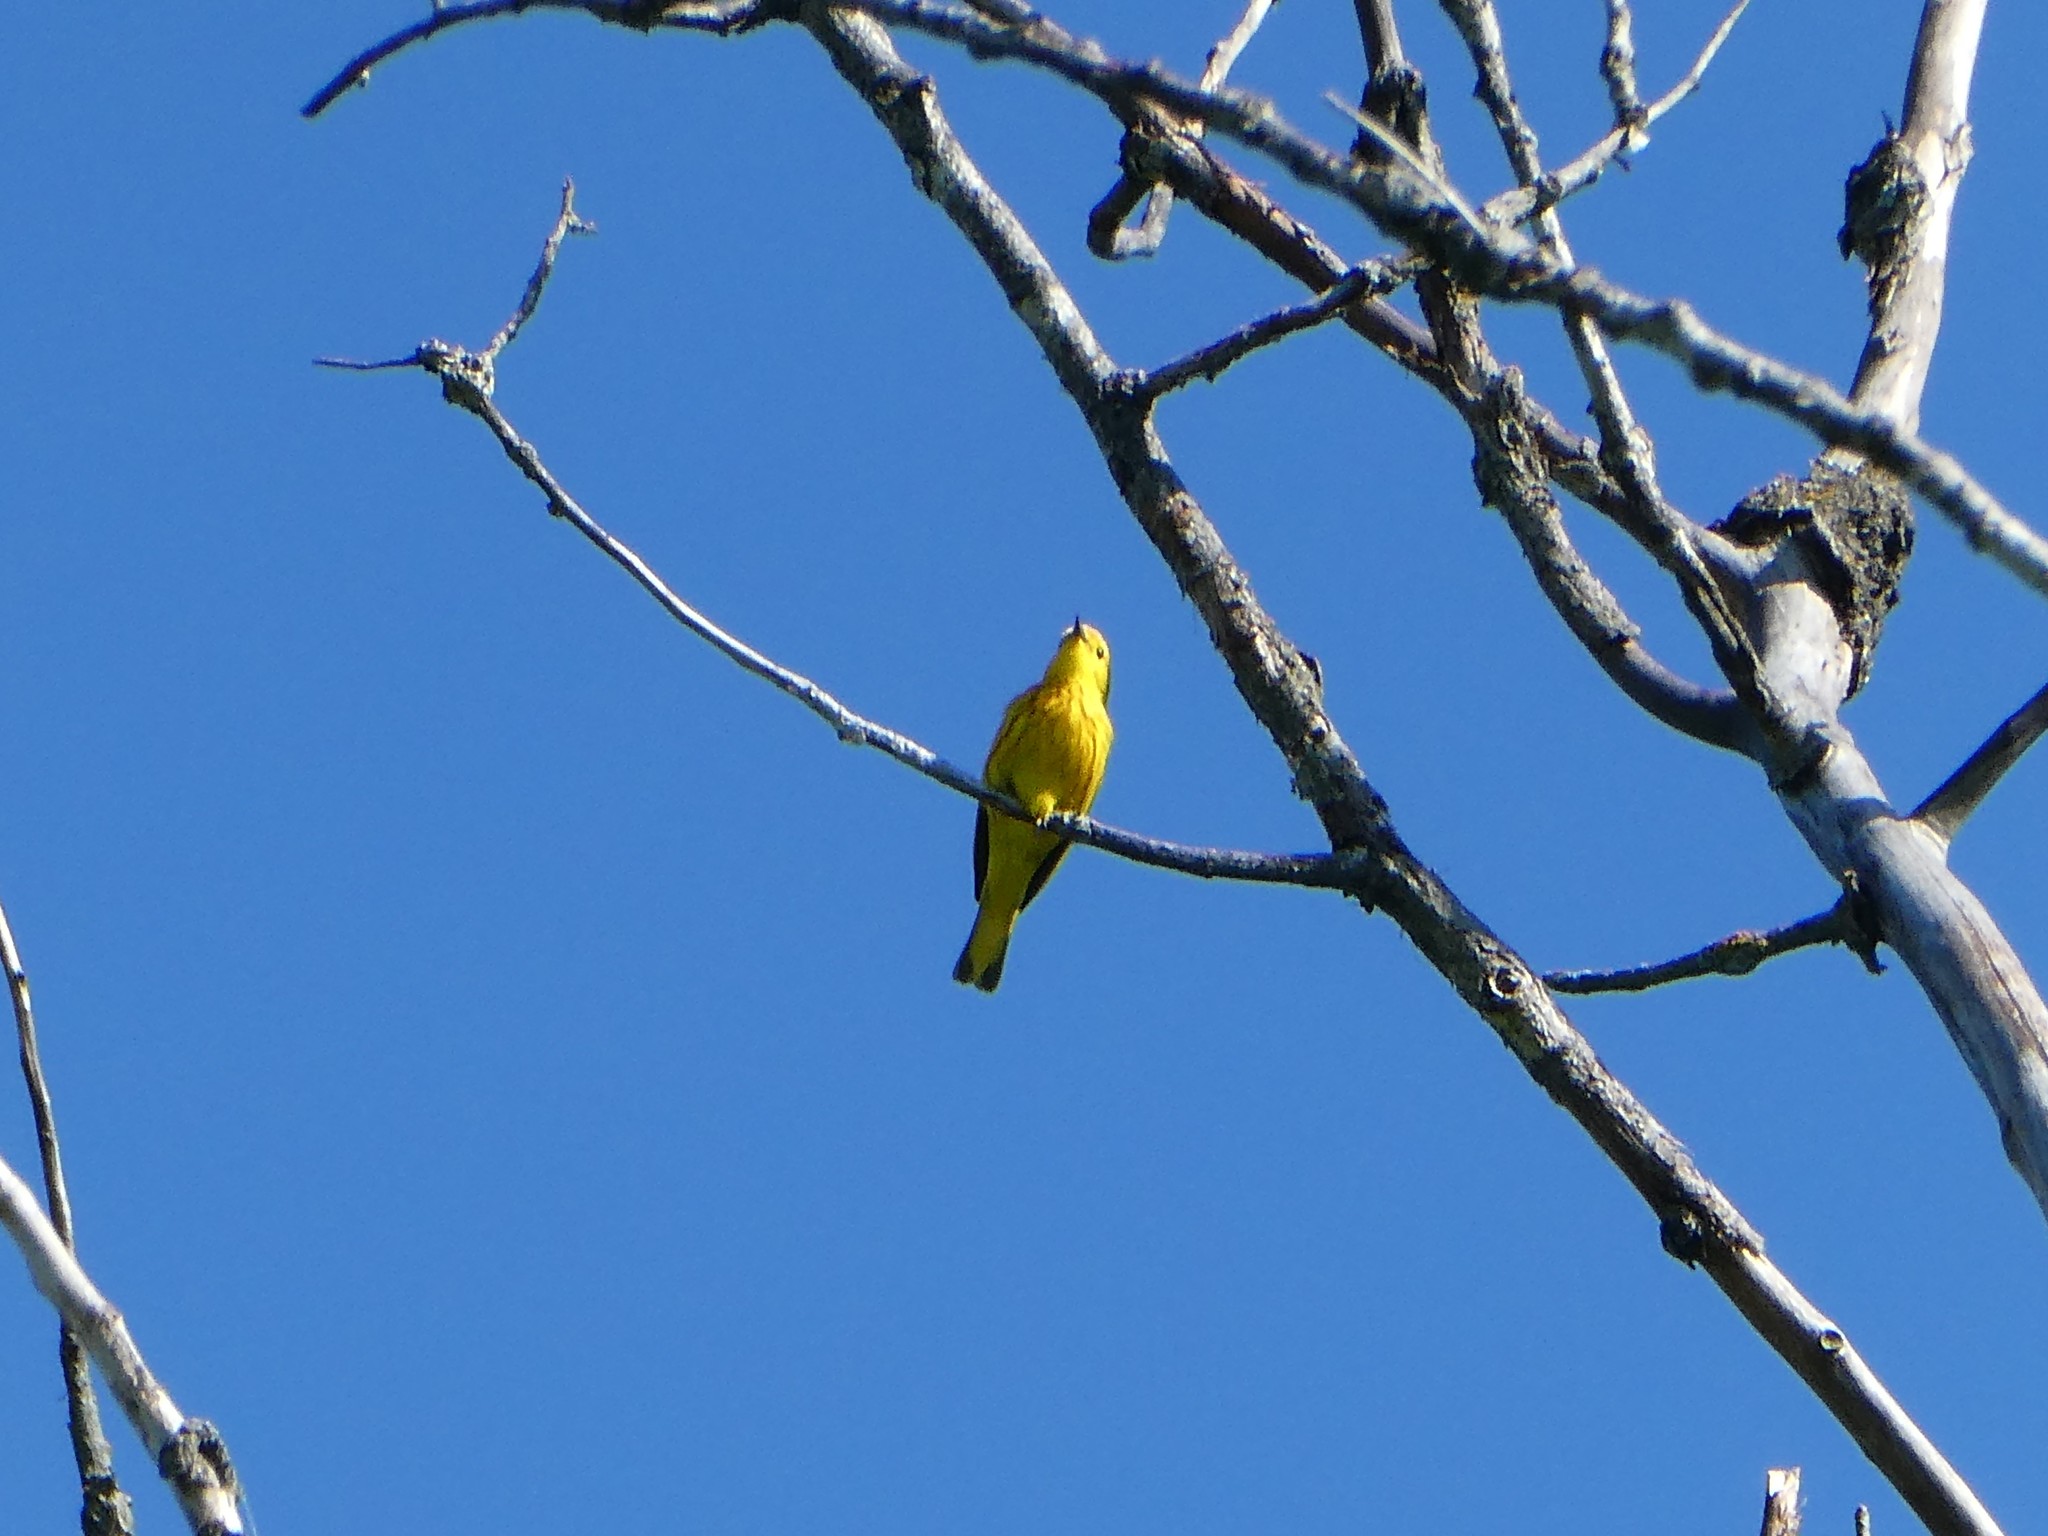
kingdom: Animalia
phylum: Chordata
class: Aves
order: Passeriformes
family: Parulidae
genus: Setophaga
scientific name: Setophaga petechia
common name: Yellow warbler
